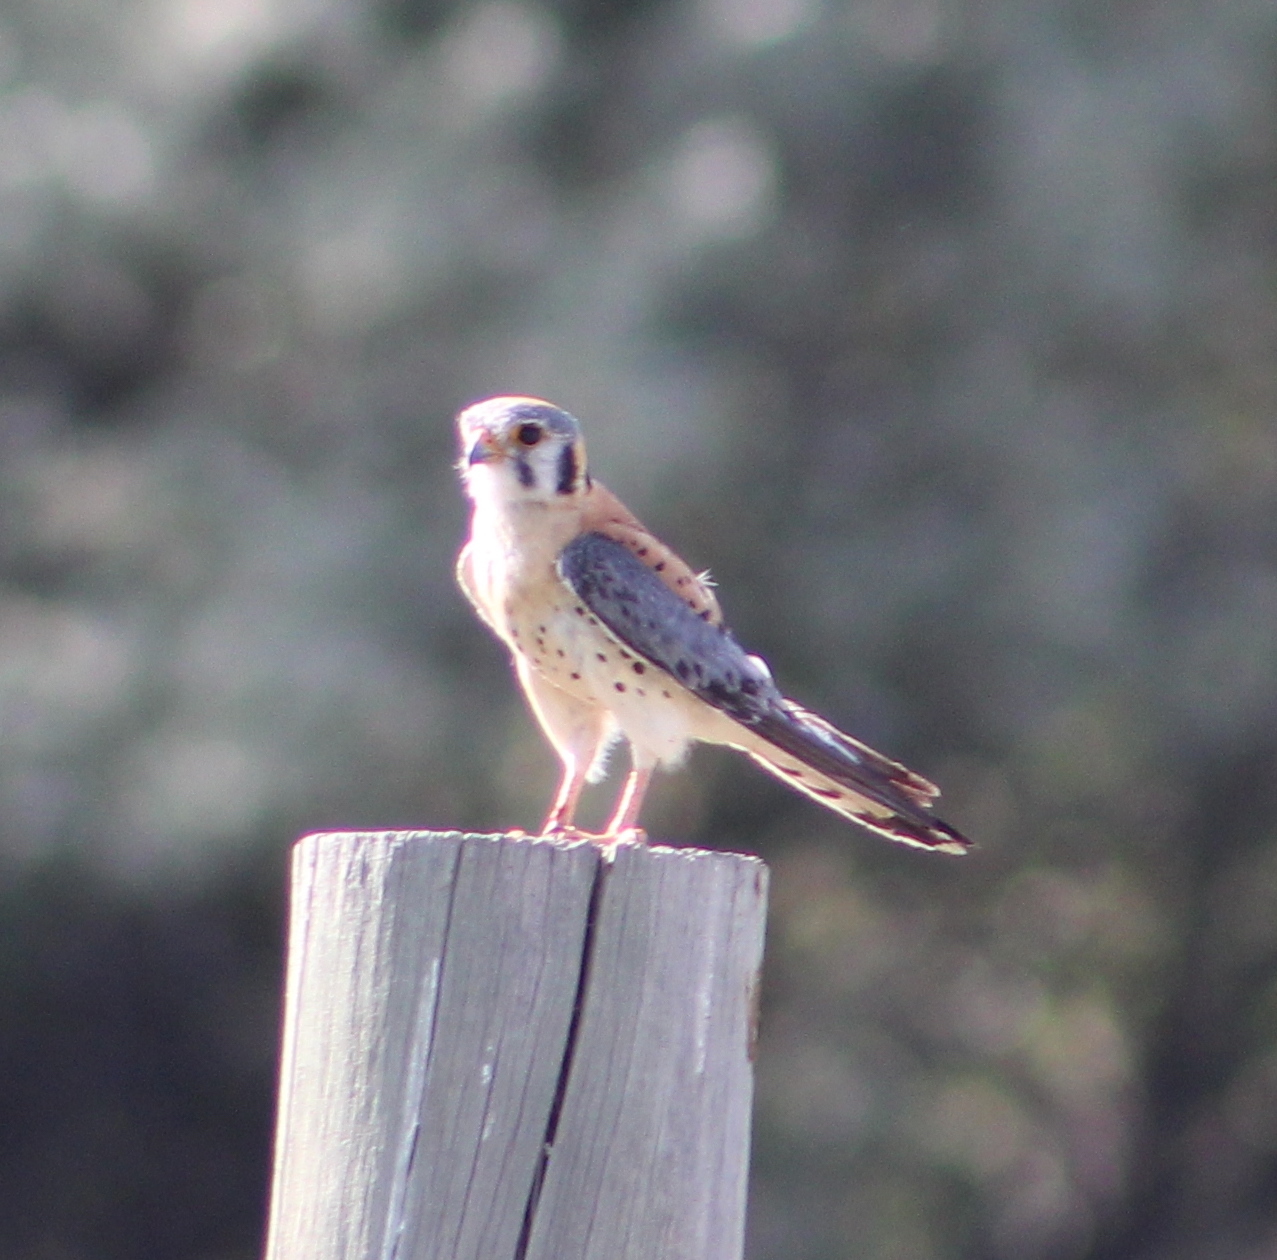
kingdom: Animalia
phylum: Chordata
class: Aves
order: Falconiformes
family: Falconidae
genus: Falco
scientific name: Falco sparverius
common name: American kestrel
